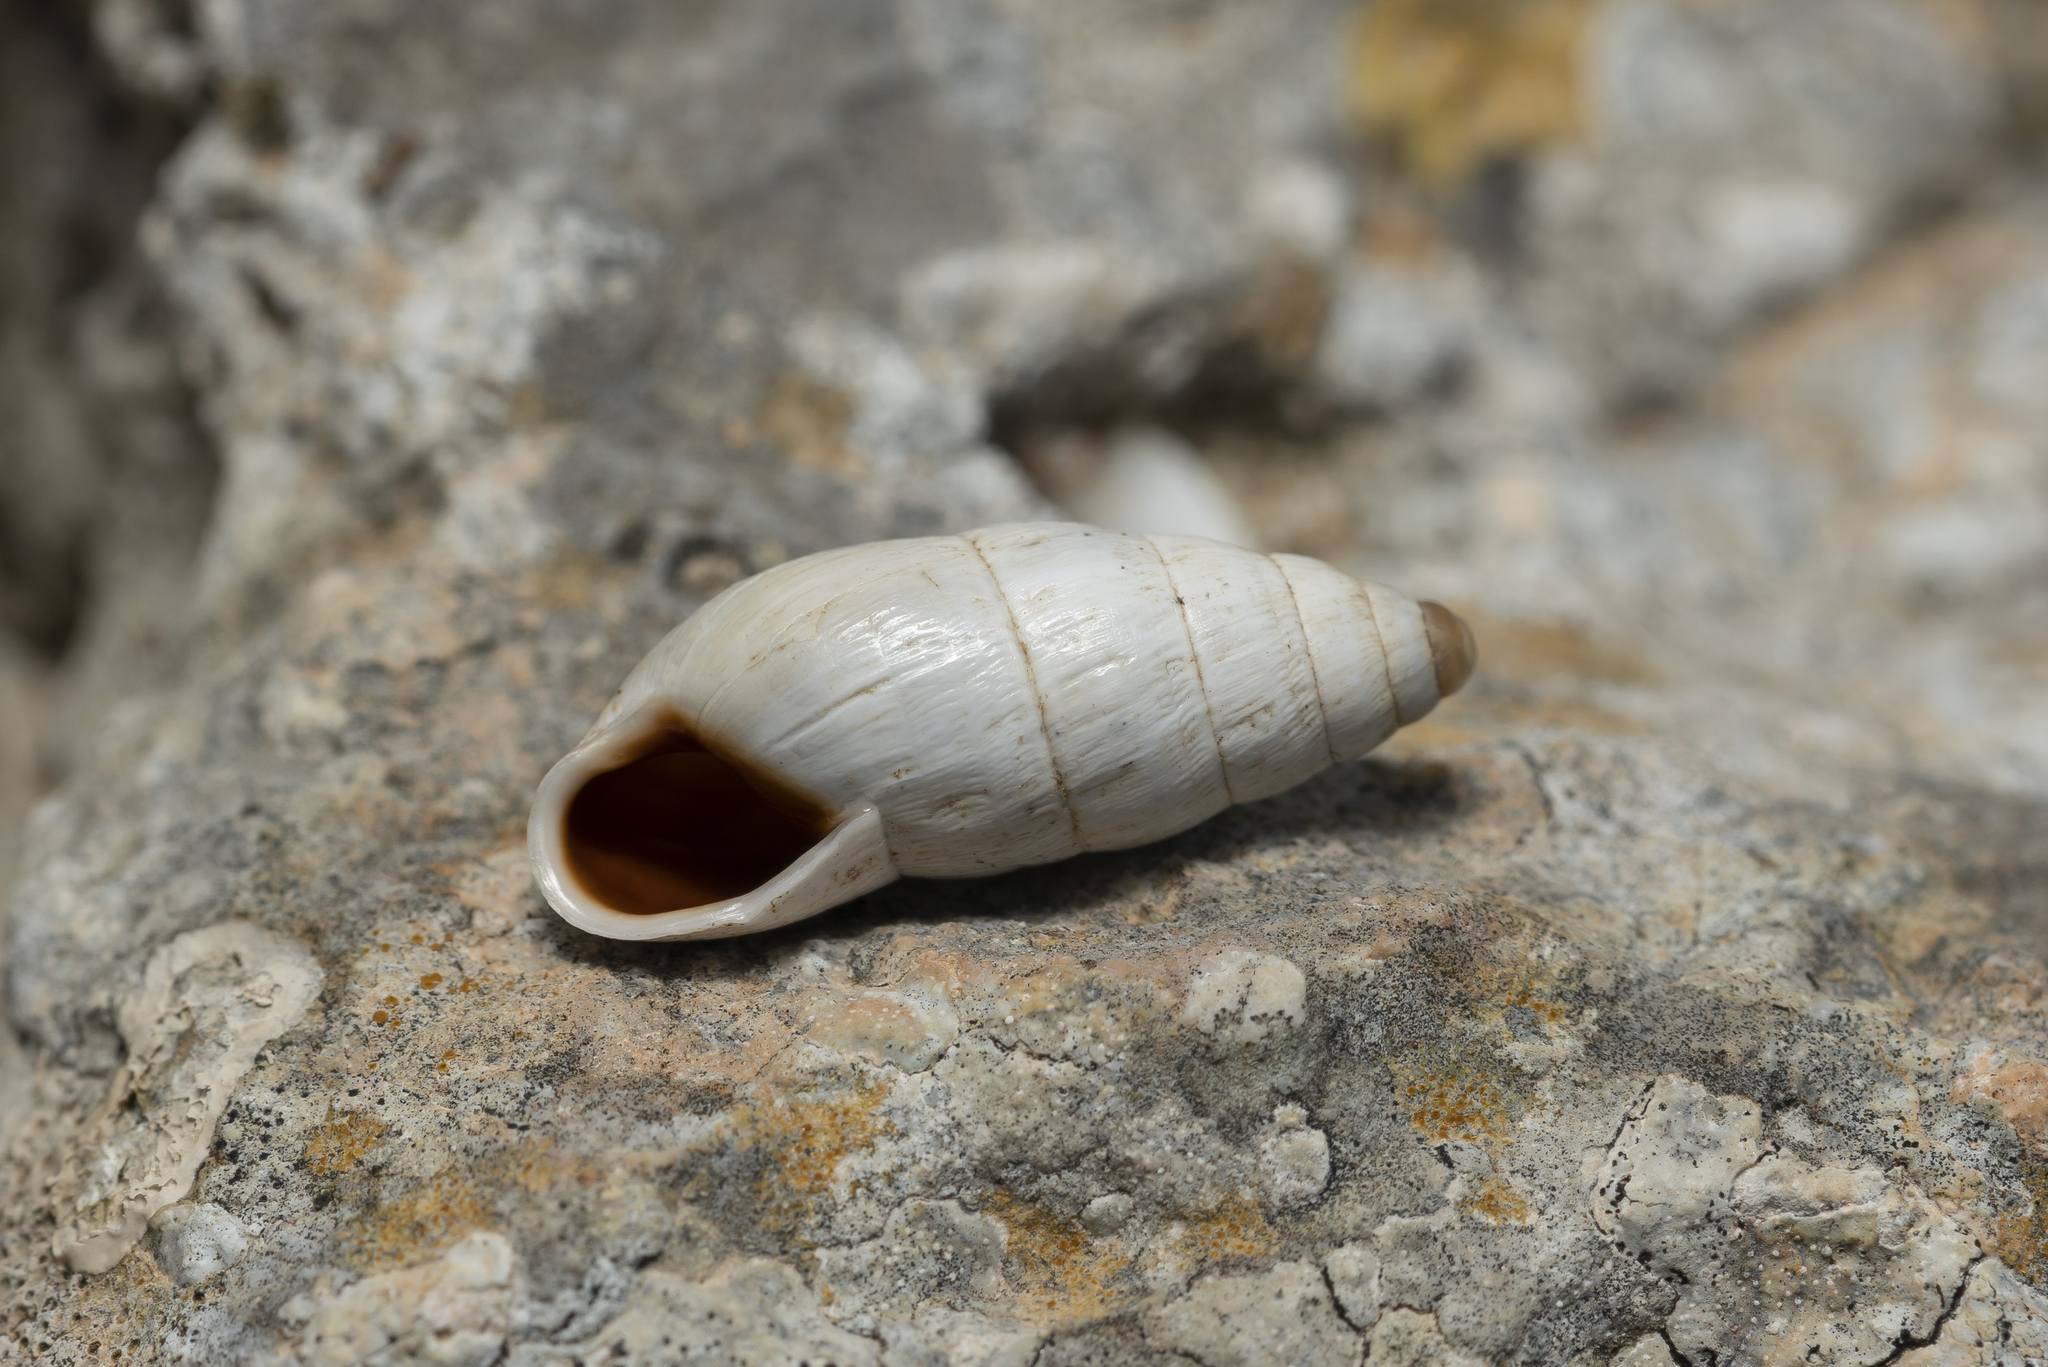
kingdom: Animalia
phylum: Mollusca
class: Gastropoda
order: Stylommatophora
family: Enidae
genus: Zebrina
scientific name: Zebrina fasciolata
